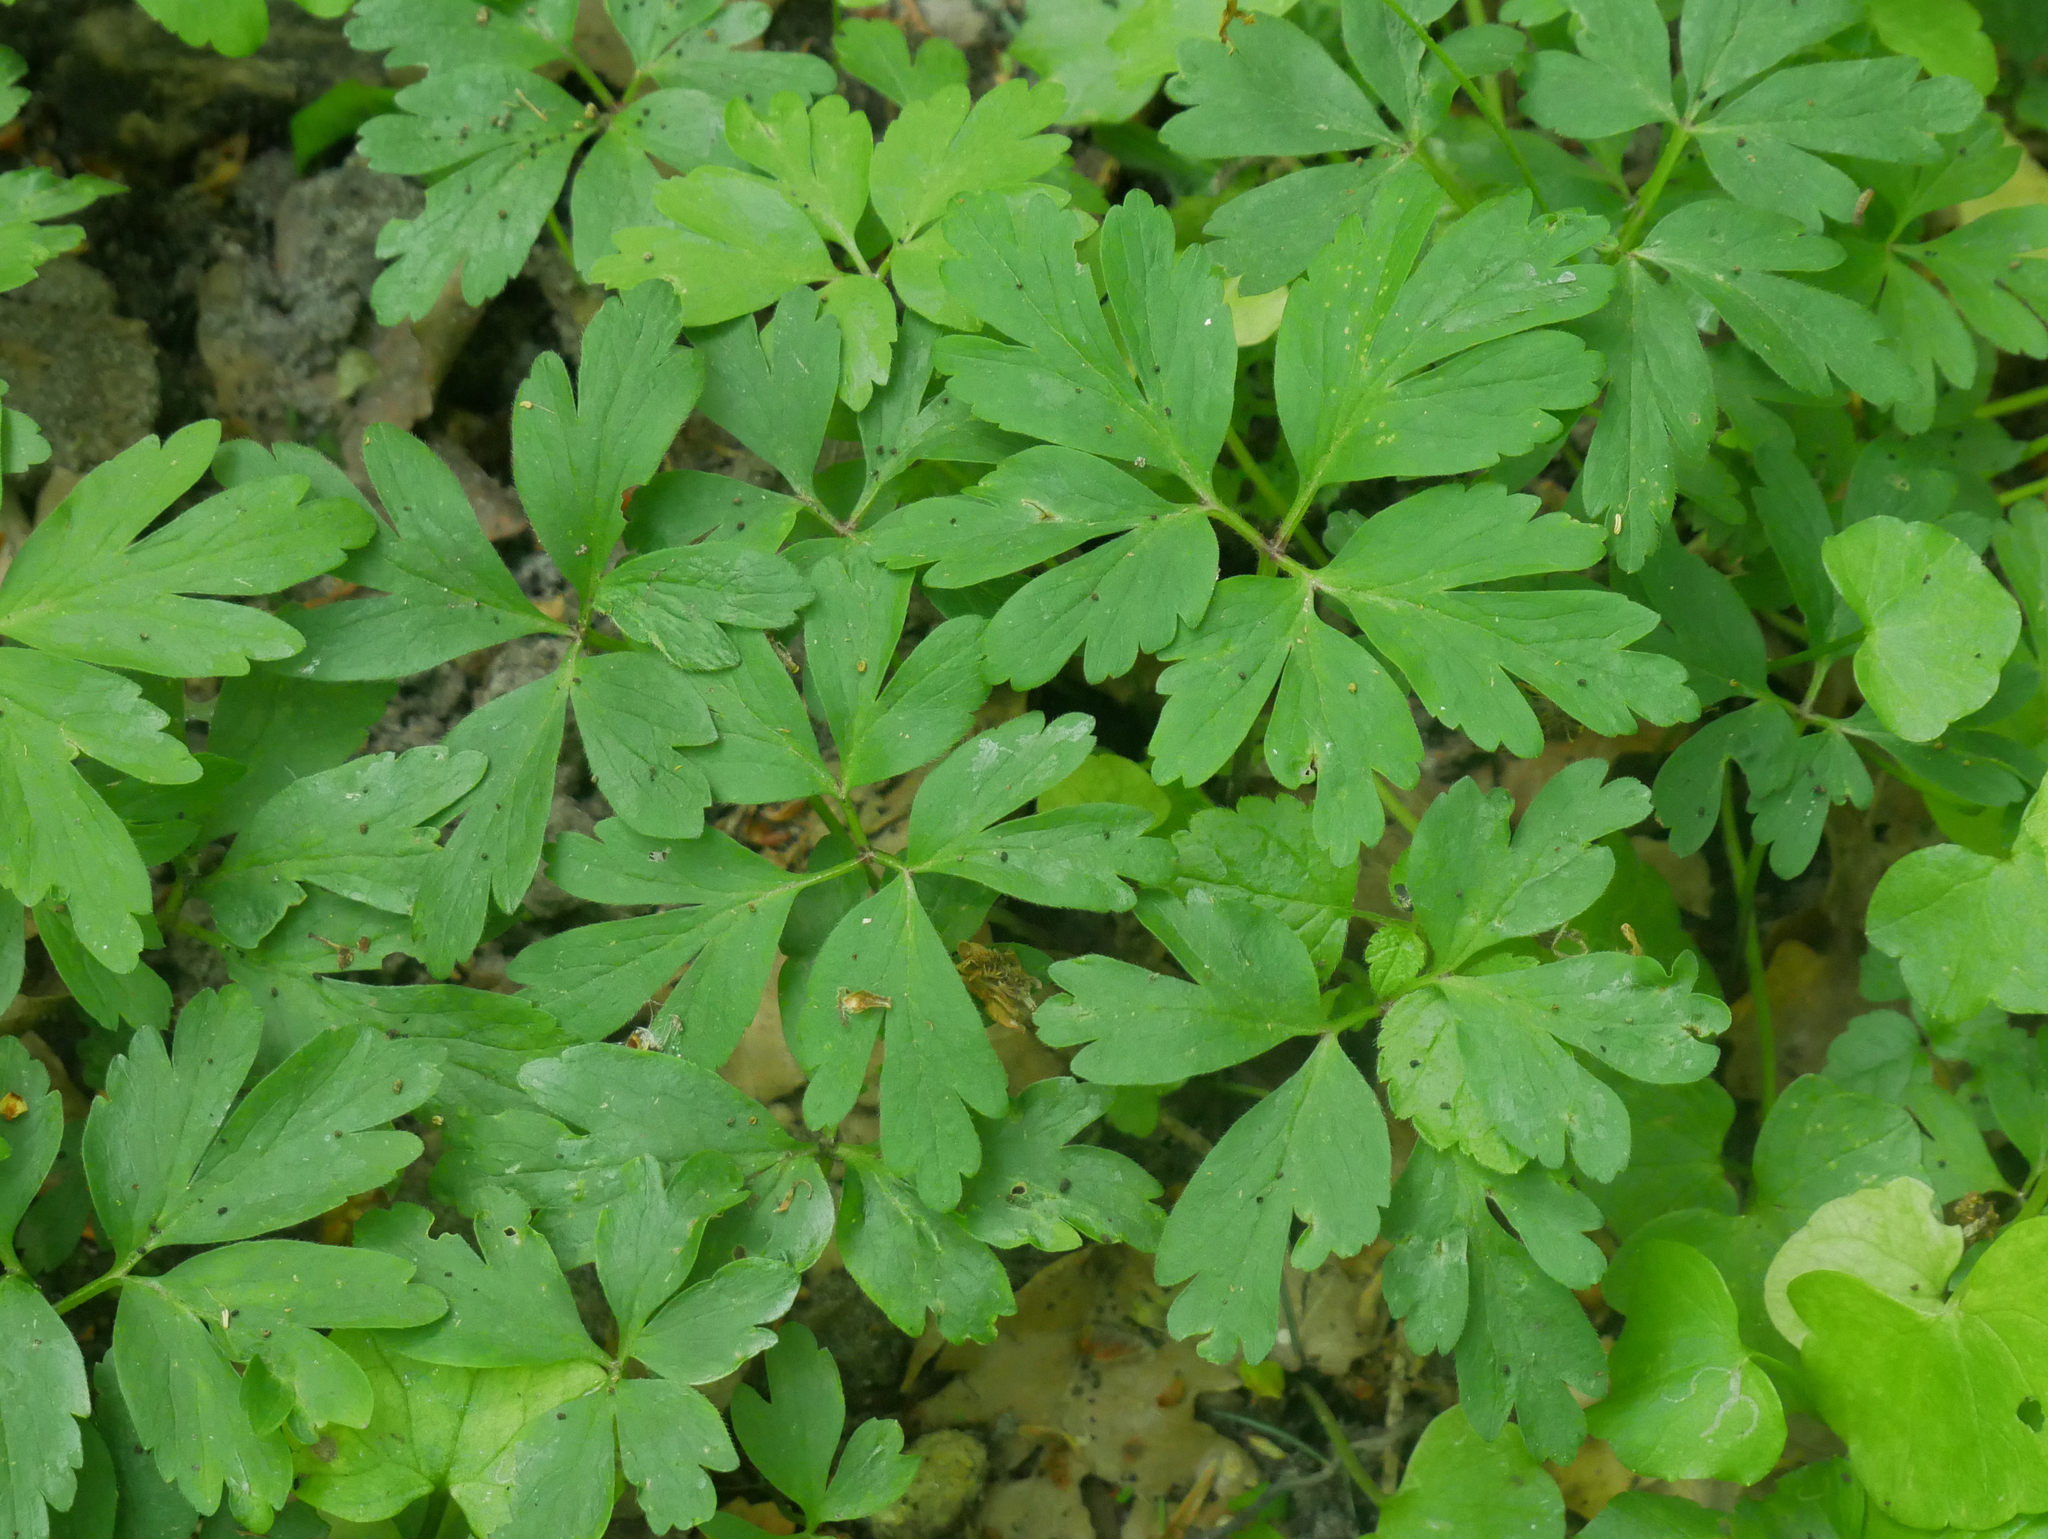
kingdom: Plantae
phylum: Tracheophyta
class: Magnoliopsida
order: Ranunculales
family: Ranunculaceae
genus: Anemone
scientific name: Anemone nemorosa
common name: Wood anemone
